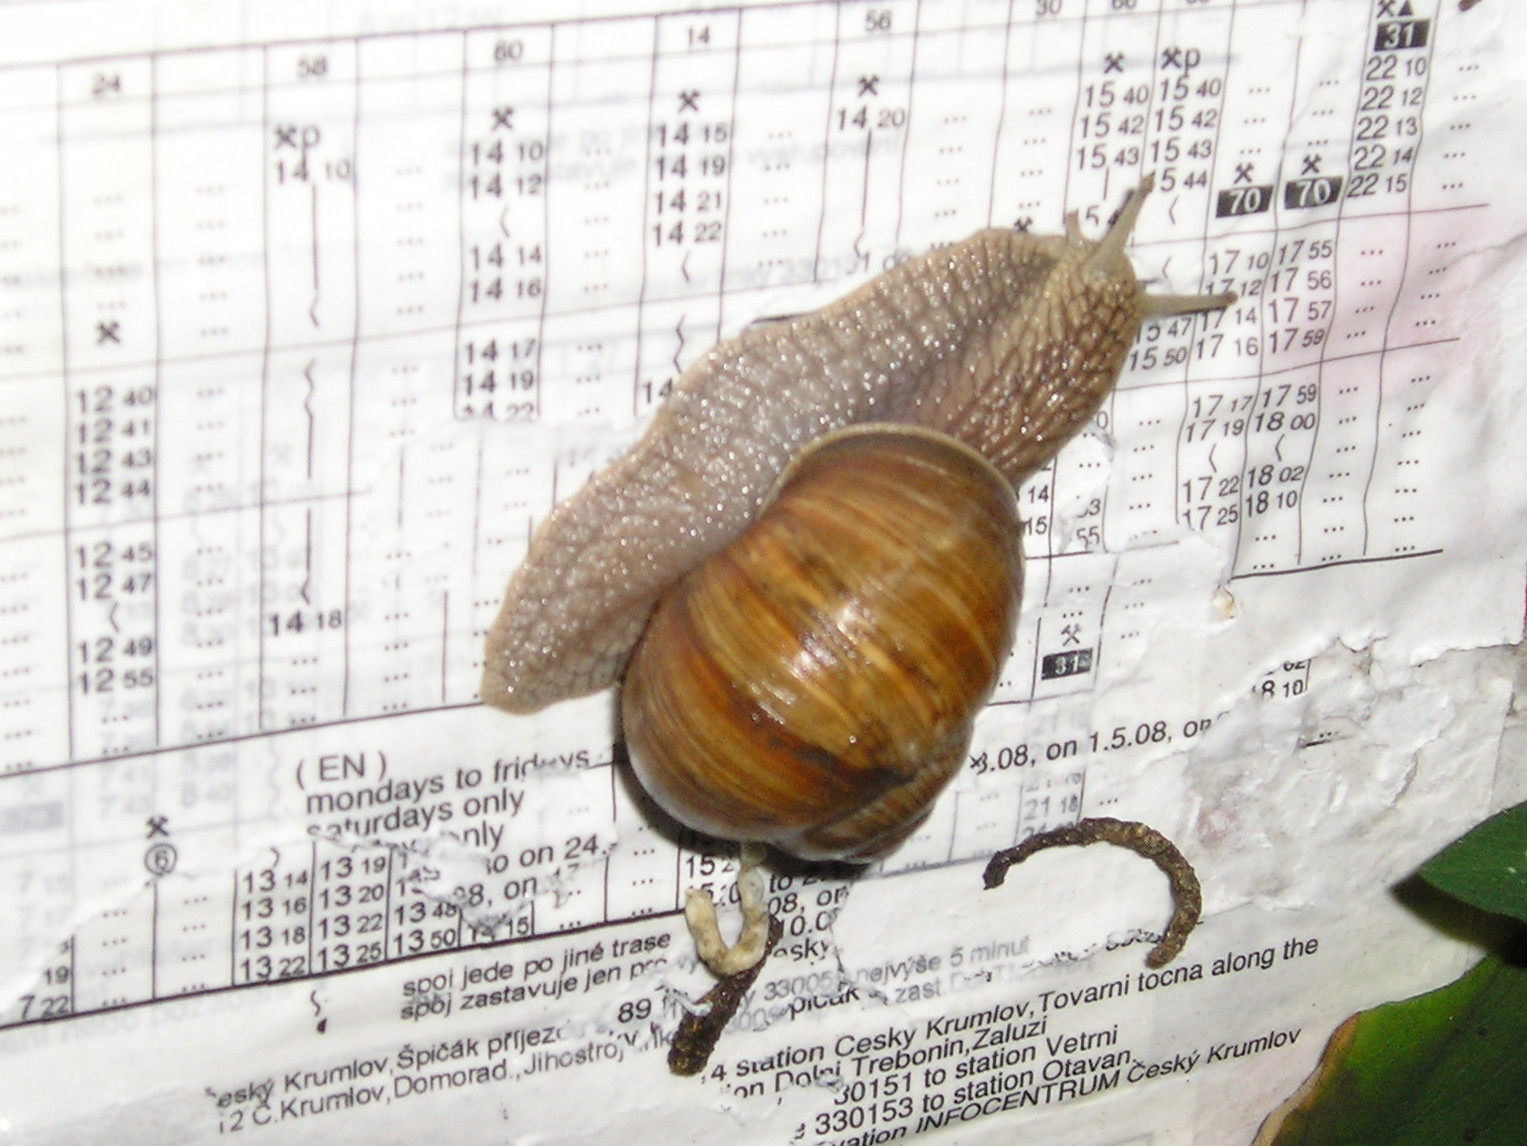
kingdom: Animalia
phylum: Mollusca
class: Gastropoda
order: Stylommatophora
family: Helicidae
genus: Helix
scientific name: Helix pomatia
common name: Roman snail
